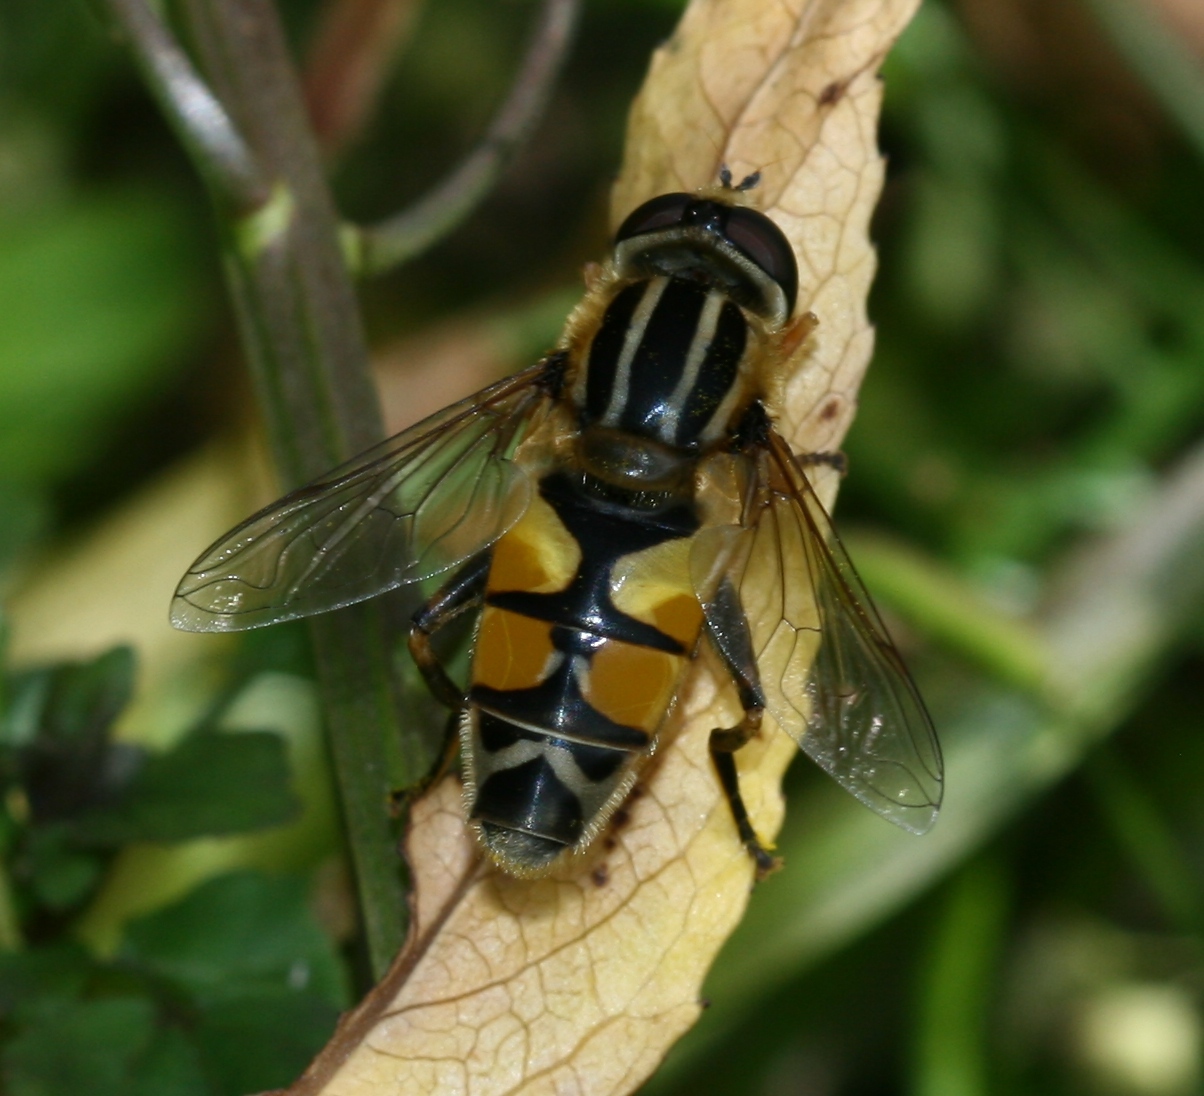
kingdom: Animalia
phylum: Arthropoda
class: Insecta
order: Diptera
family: Syrphidae
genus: Helophilus
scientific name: Helophilus trivittatus
